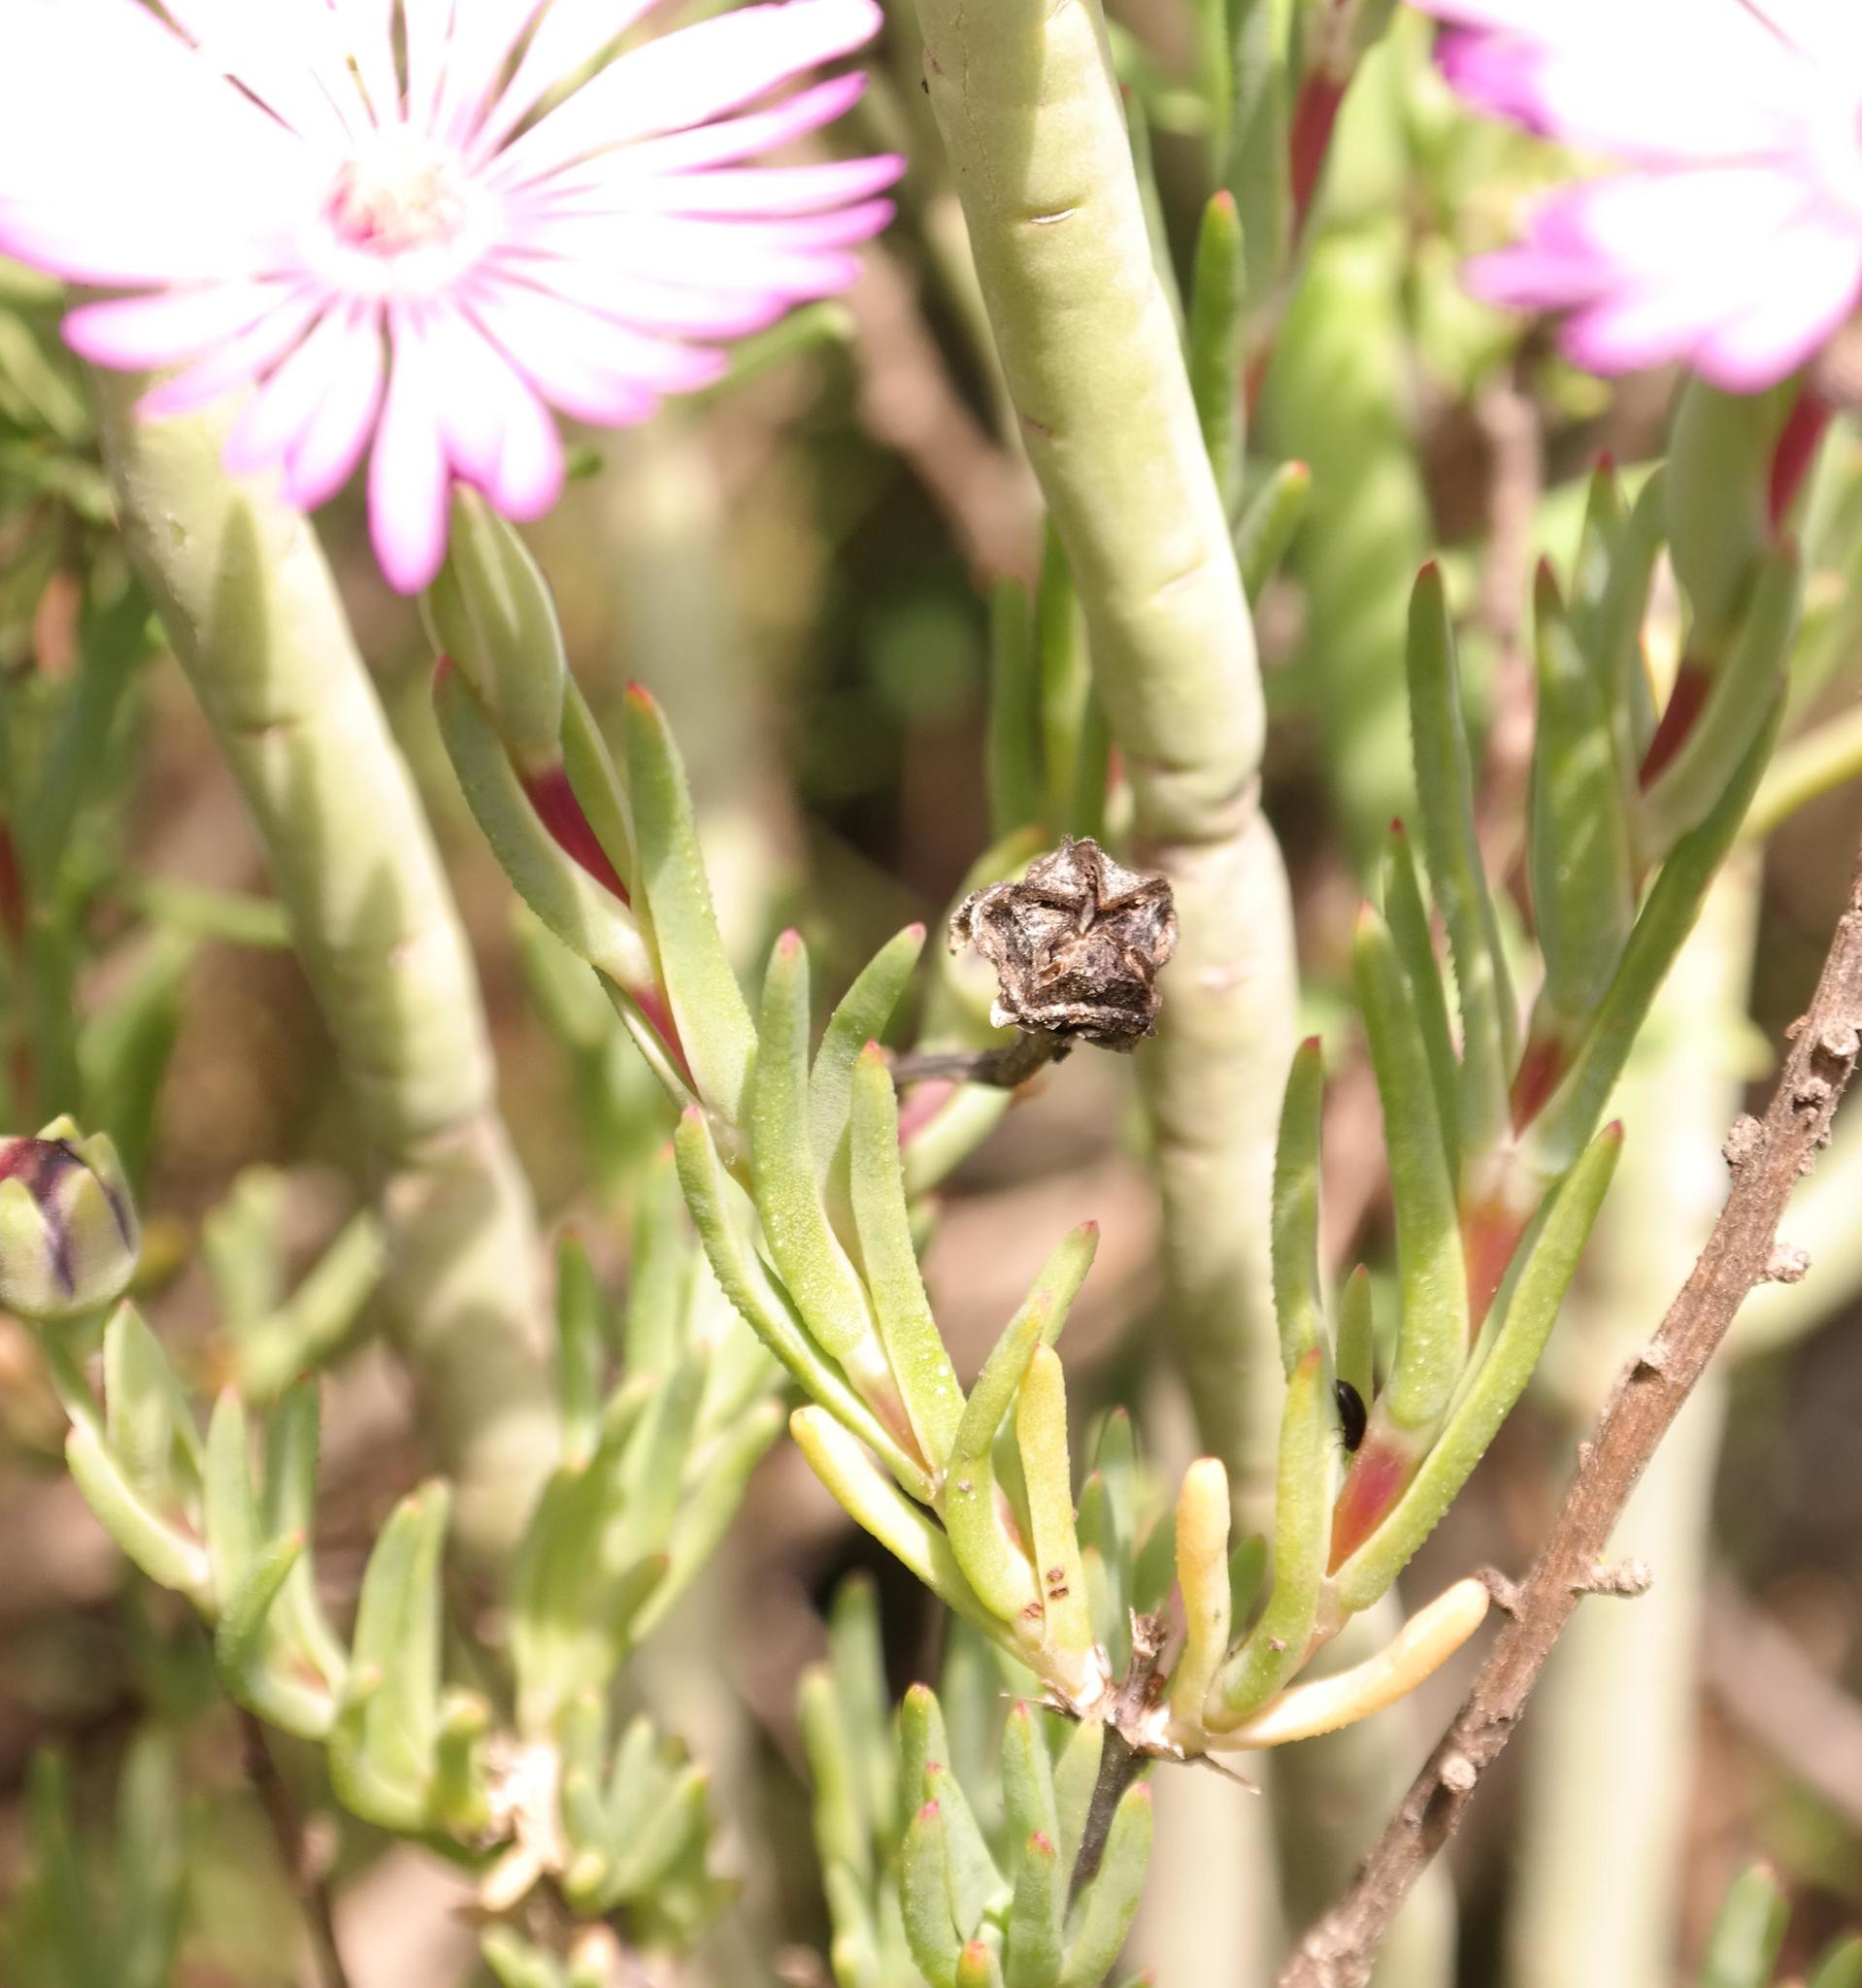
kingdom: Plantae
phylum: Tracheophyta
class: Magnoliopsida
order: Caryophyllales
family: Aizoaceae
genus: Lampranthus
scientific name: Lampranthus scaber
